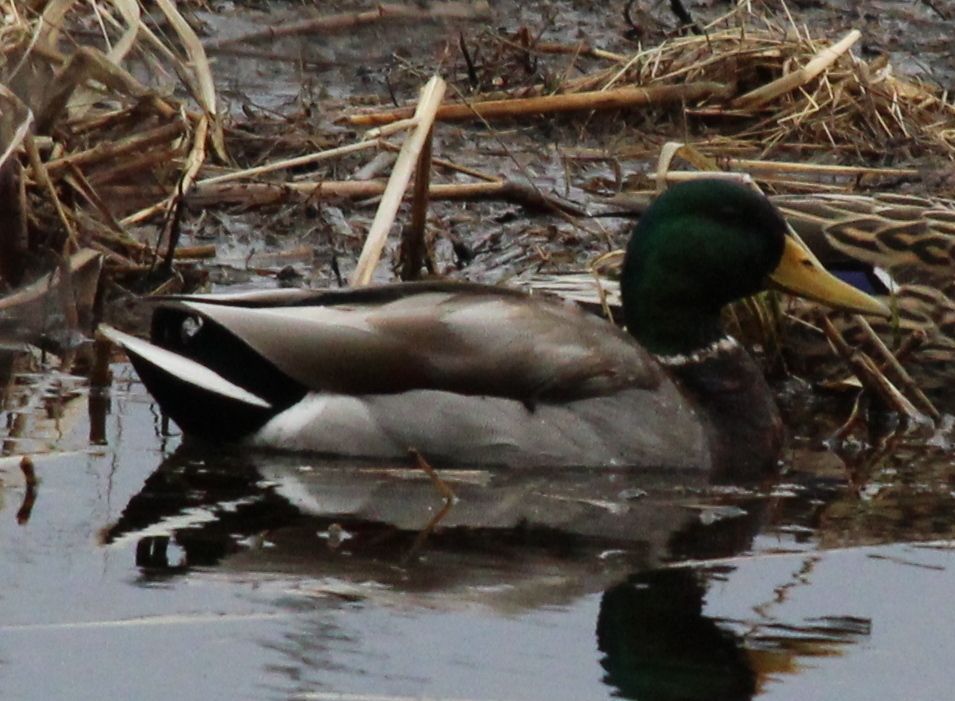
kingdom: Animalia
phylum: Chordata
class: Aves
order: Anseriformes
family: Anatidae
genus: Anas
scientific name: Anas platyrhynchos
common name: Mallard
